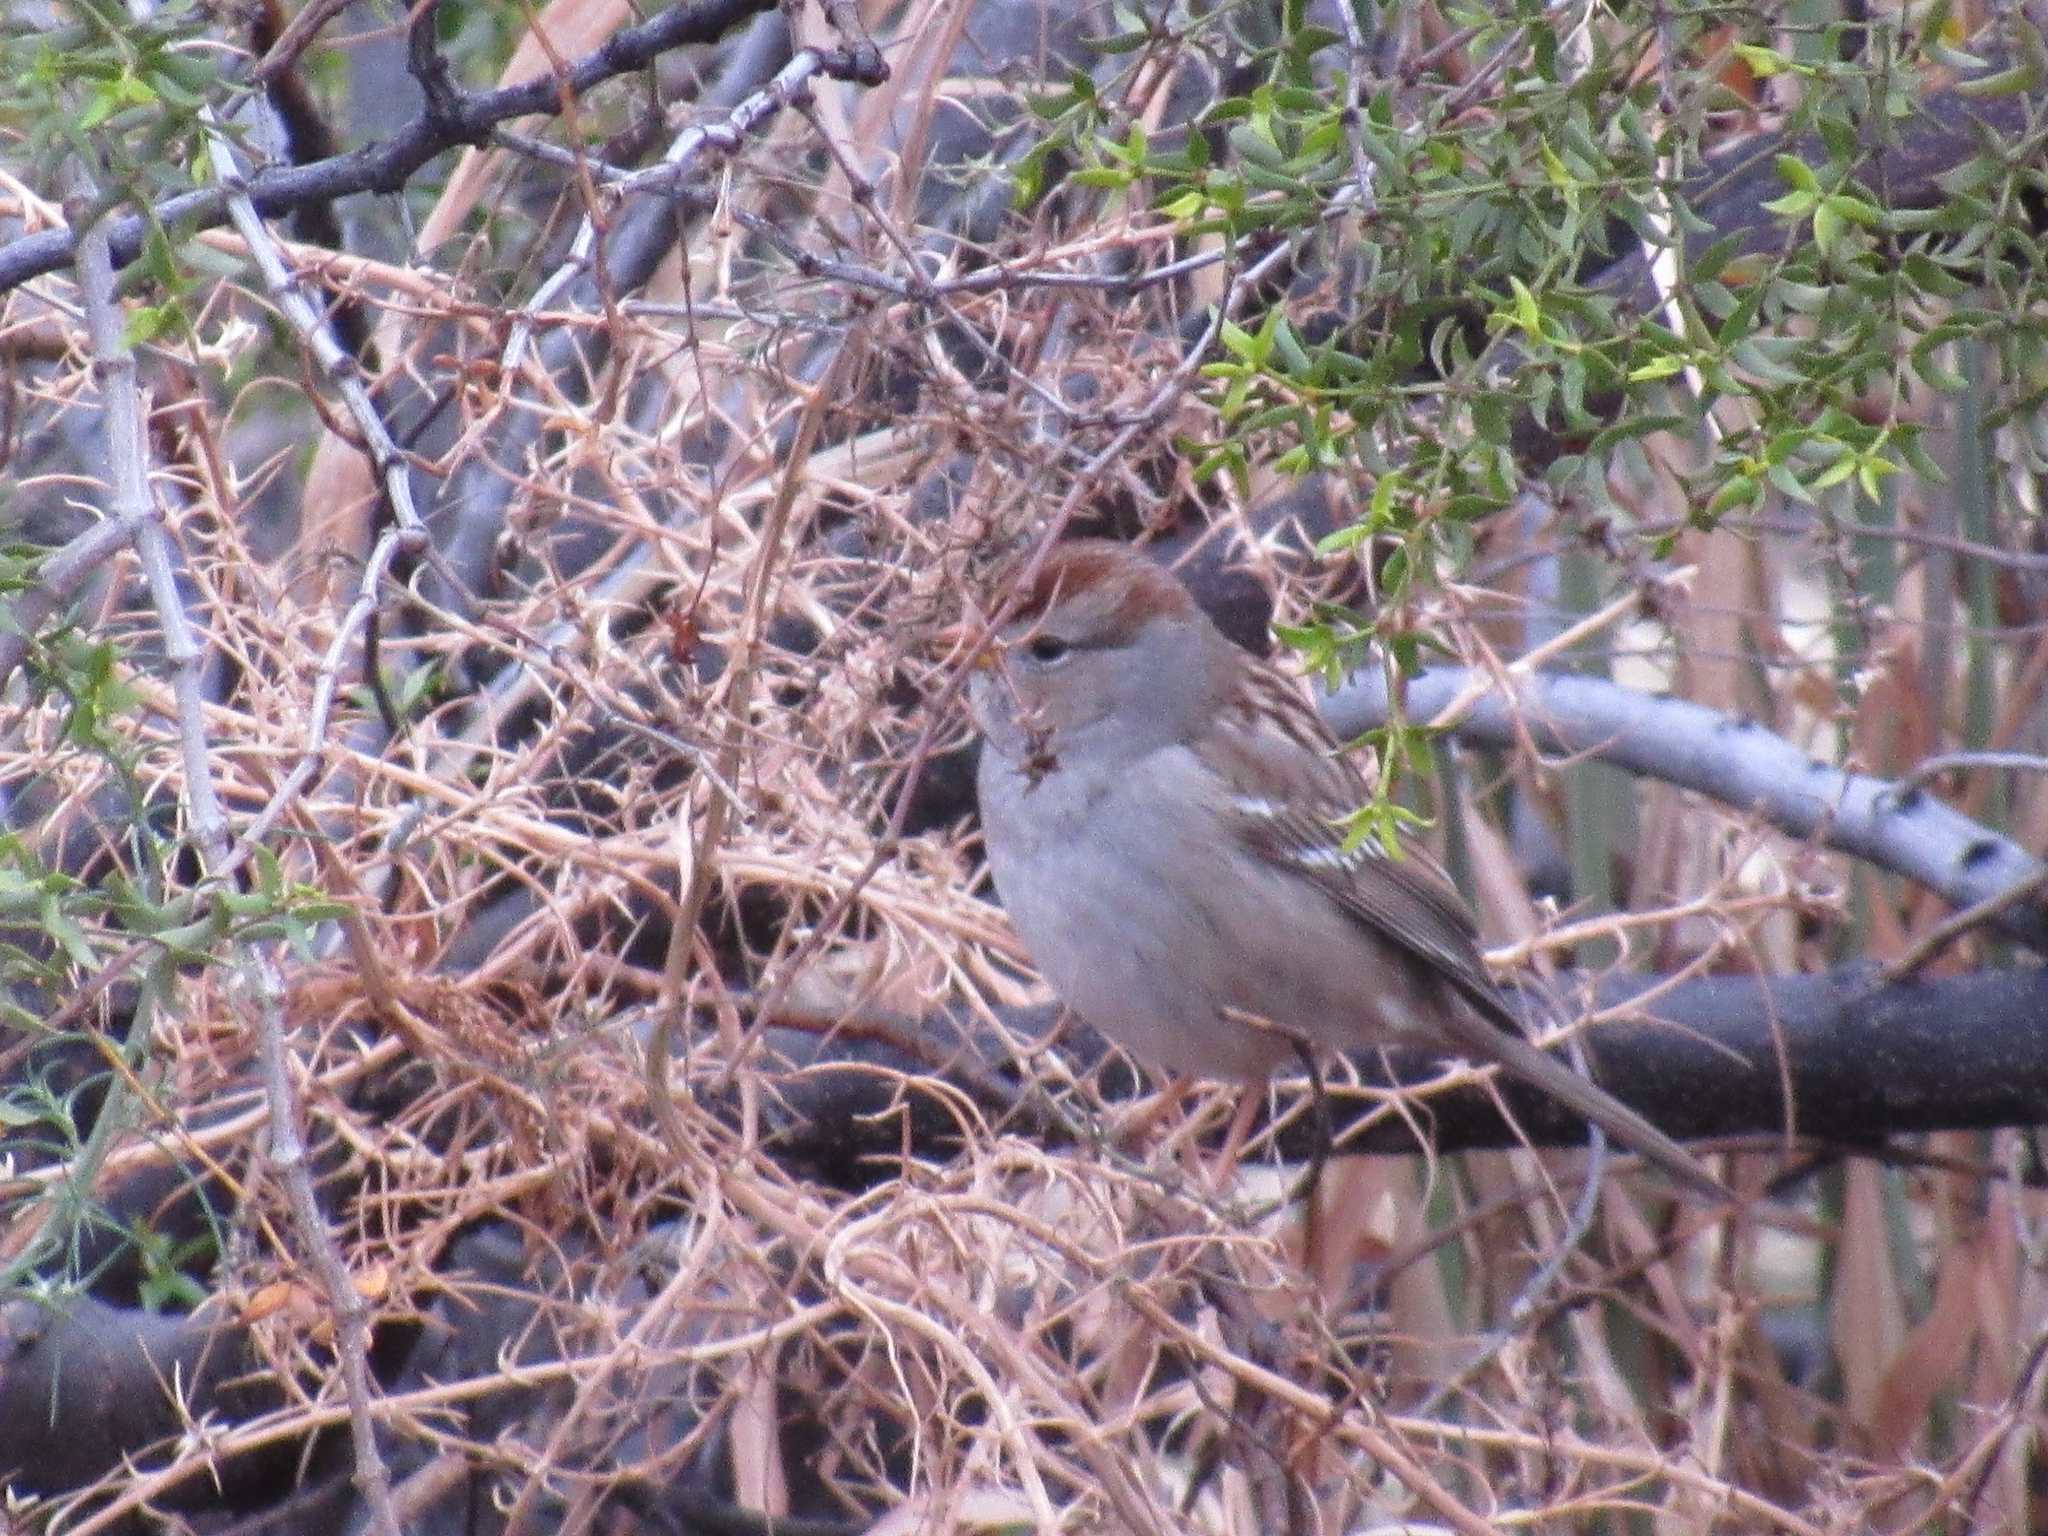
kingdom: Animalia
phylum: Chordata
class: Aves
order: Passeriformes
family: Passerellidae
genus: Zonotrichia
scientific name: Zonotrichia leucophrys
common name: White-crowned sparrow
